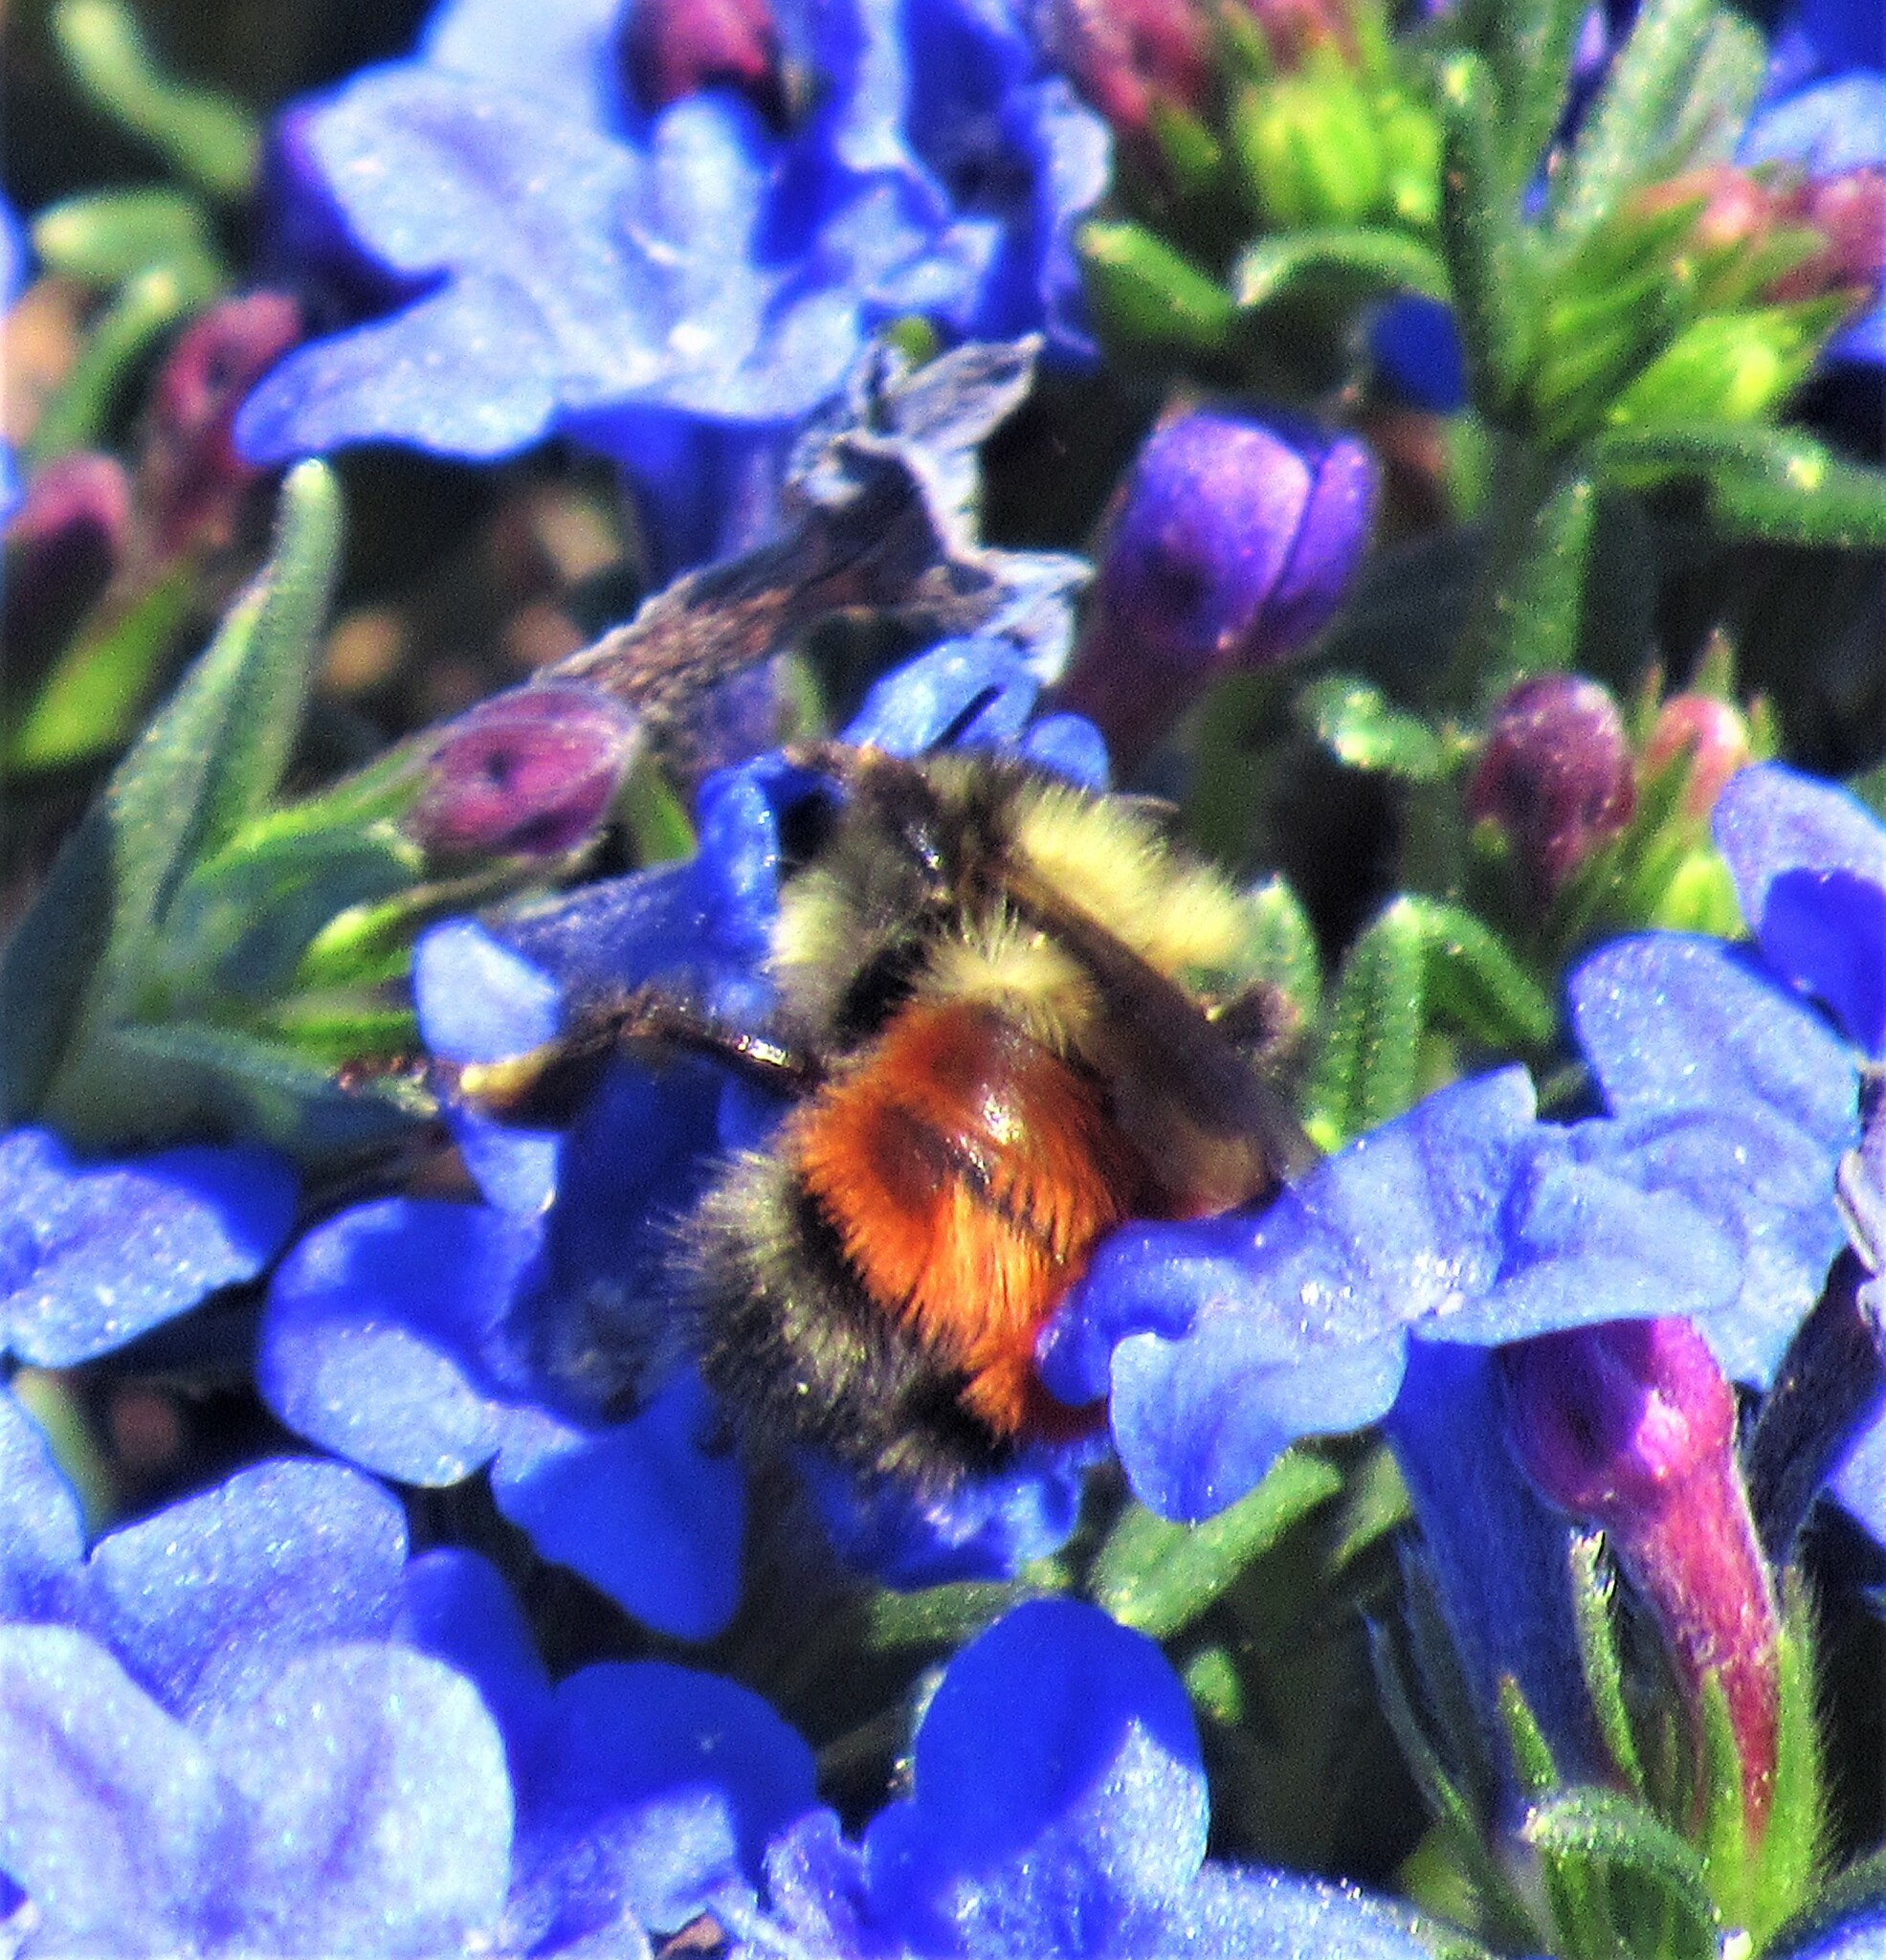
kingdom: Animalia
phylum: Arthropoda
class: Insecta
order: Hymenoptera
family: Apidae
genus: Bombus
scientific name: Bombus melanopygus
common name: Black tail bumble bee
